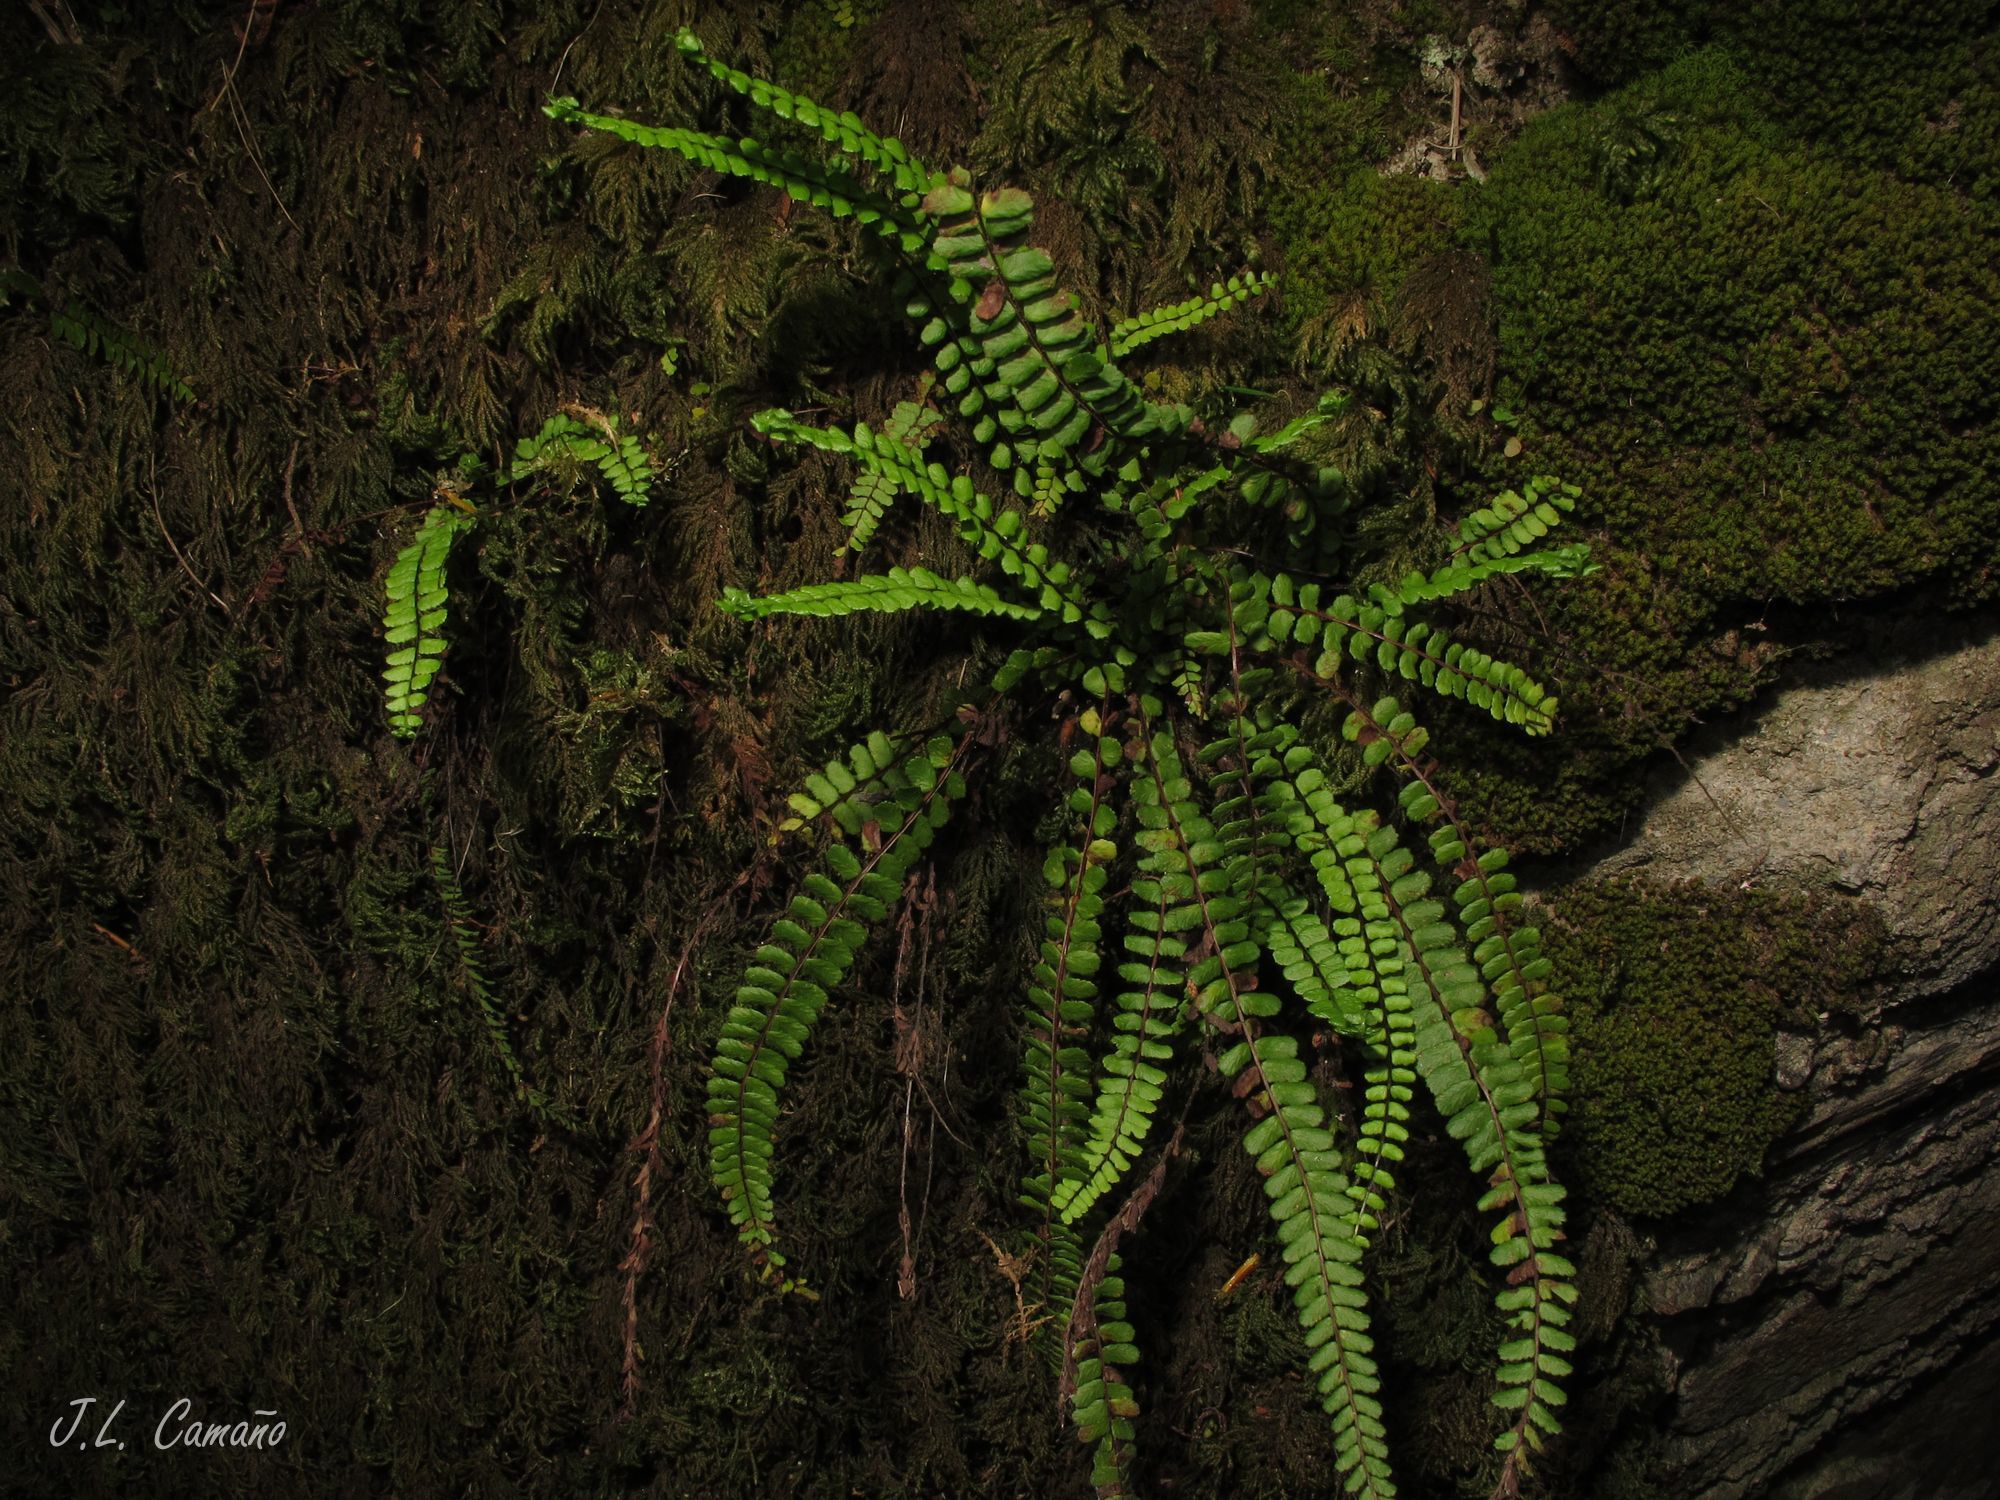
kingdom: Plantae
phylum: Tracheophyta
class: Polypodiopsida
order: Polypodiales
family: Aspleniaceae
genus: Asplenium
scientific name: Asplenium trichomanes
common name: Maidenhair spleenwort
